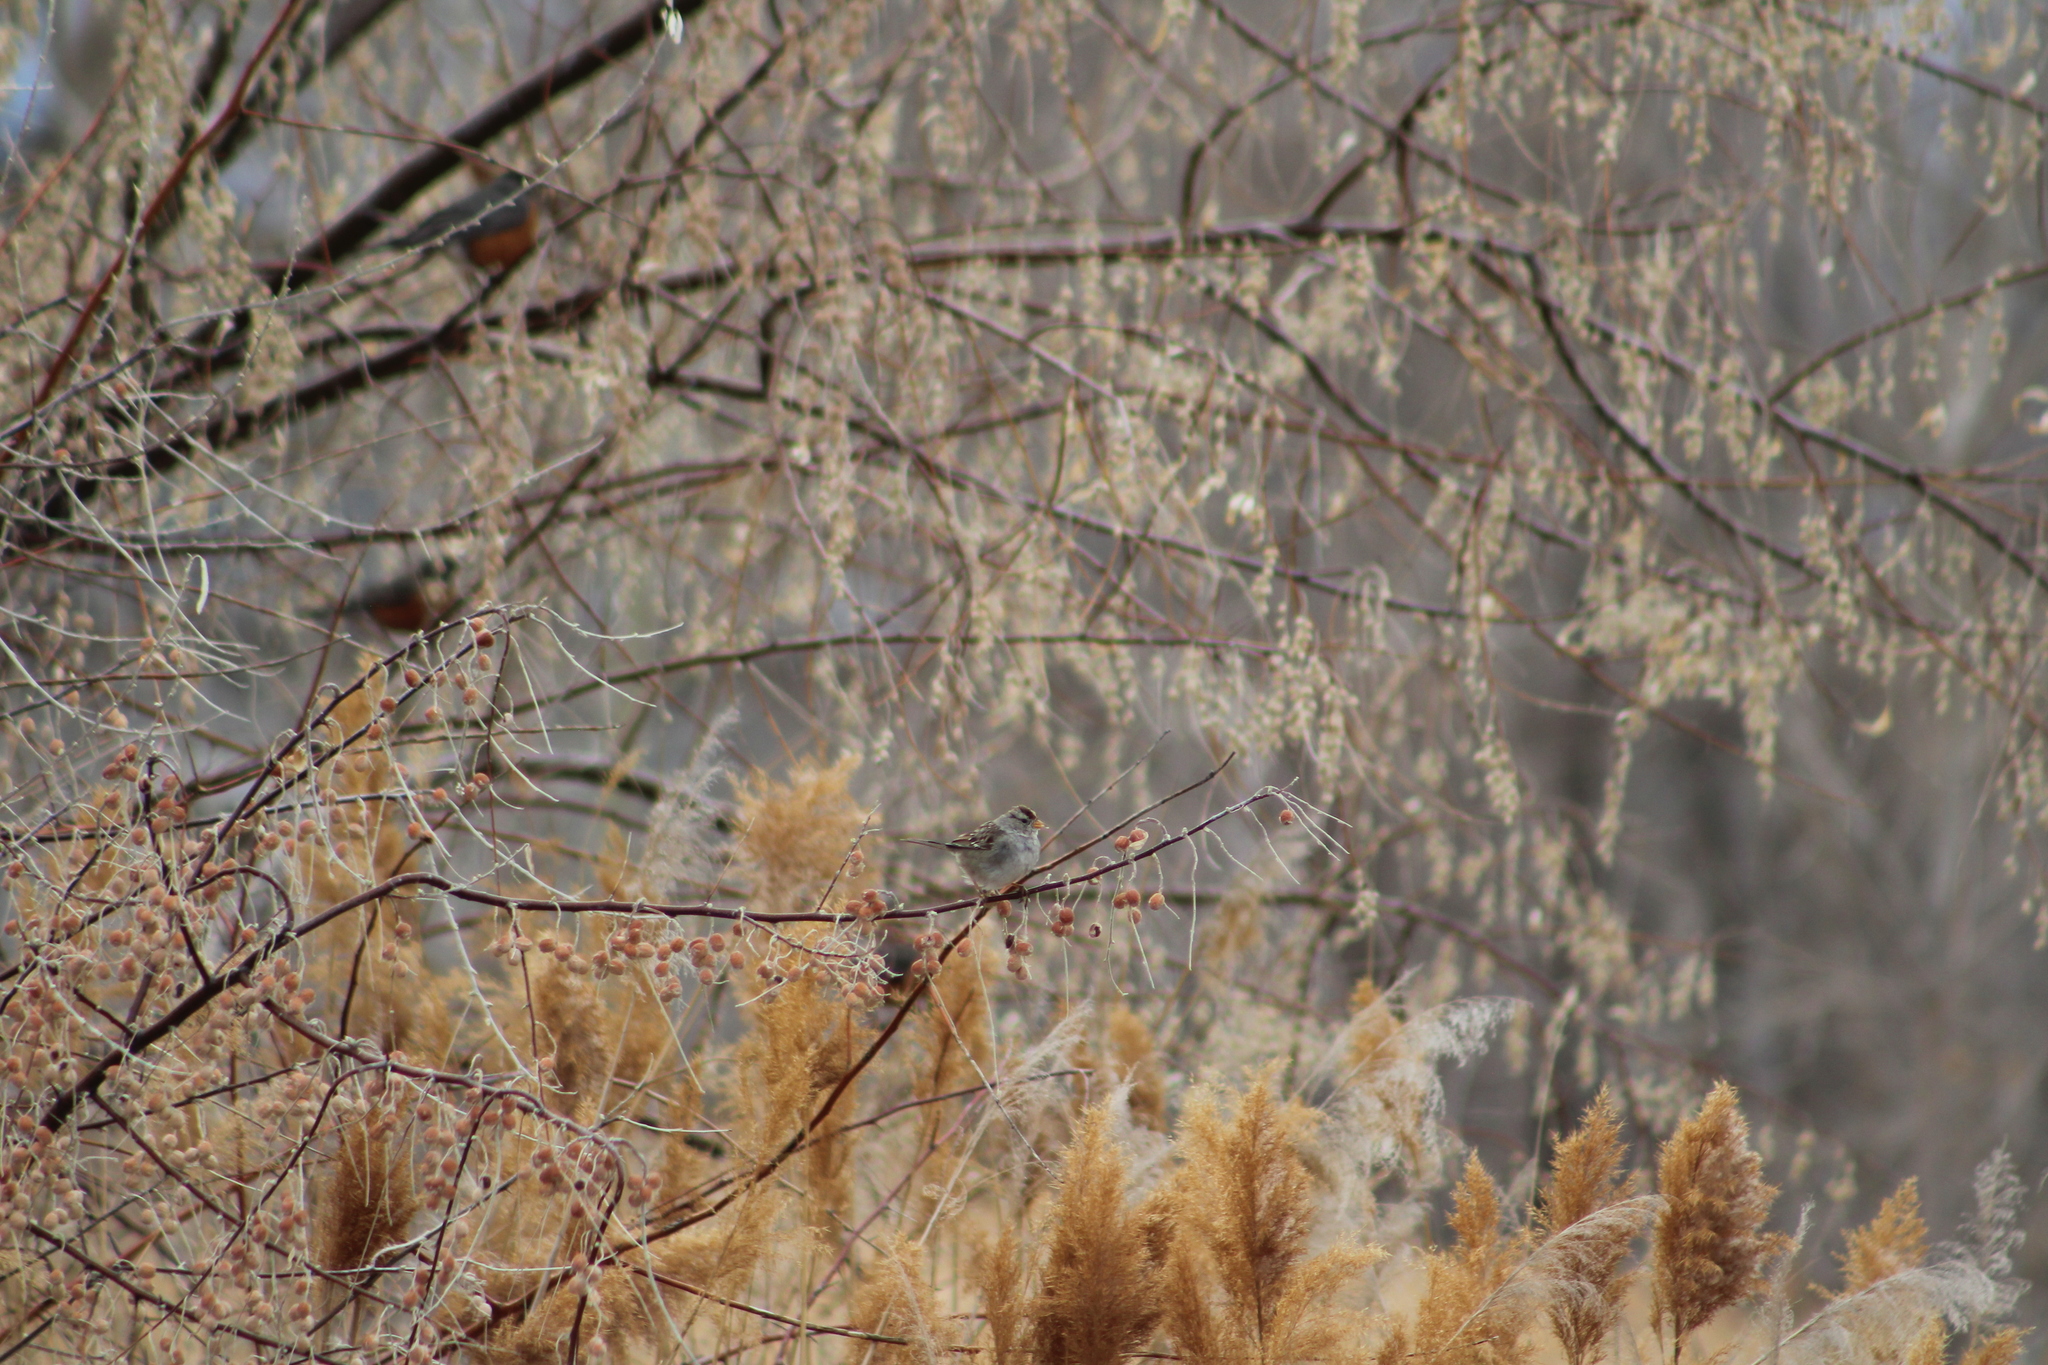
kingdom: Animalia
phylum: Chordata
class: Aves
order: Passeriformes
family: Passerellidae
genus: Zonotrichia
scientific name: Zonotrichia leucophrys
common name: White-crowned sparrow
